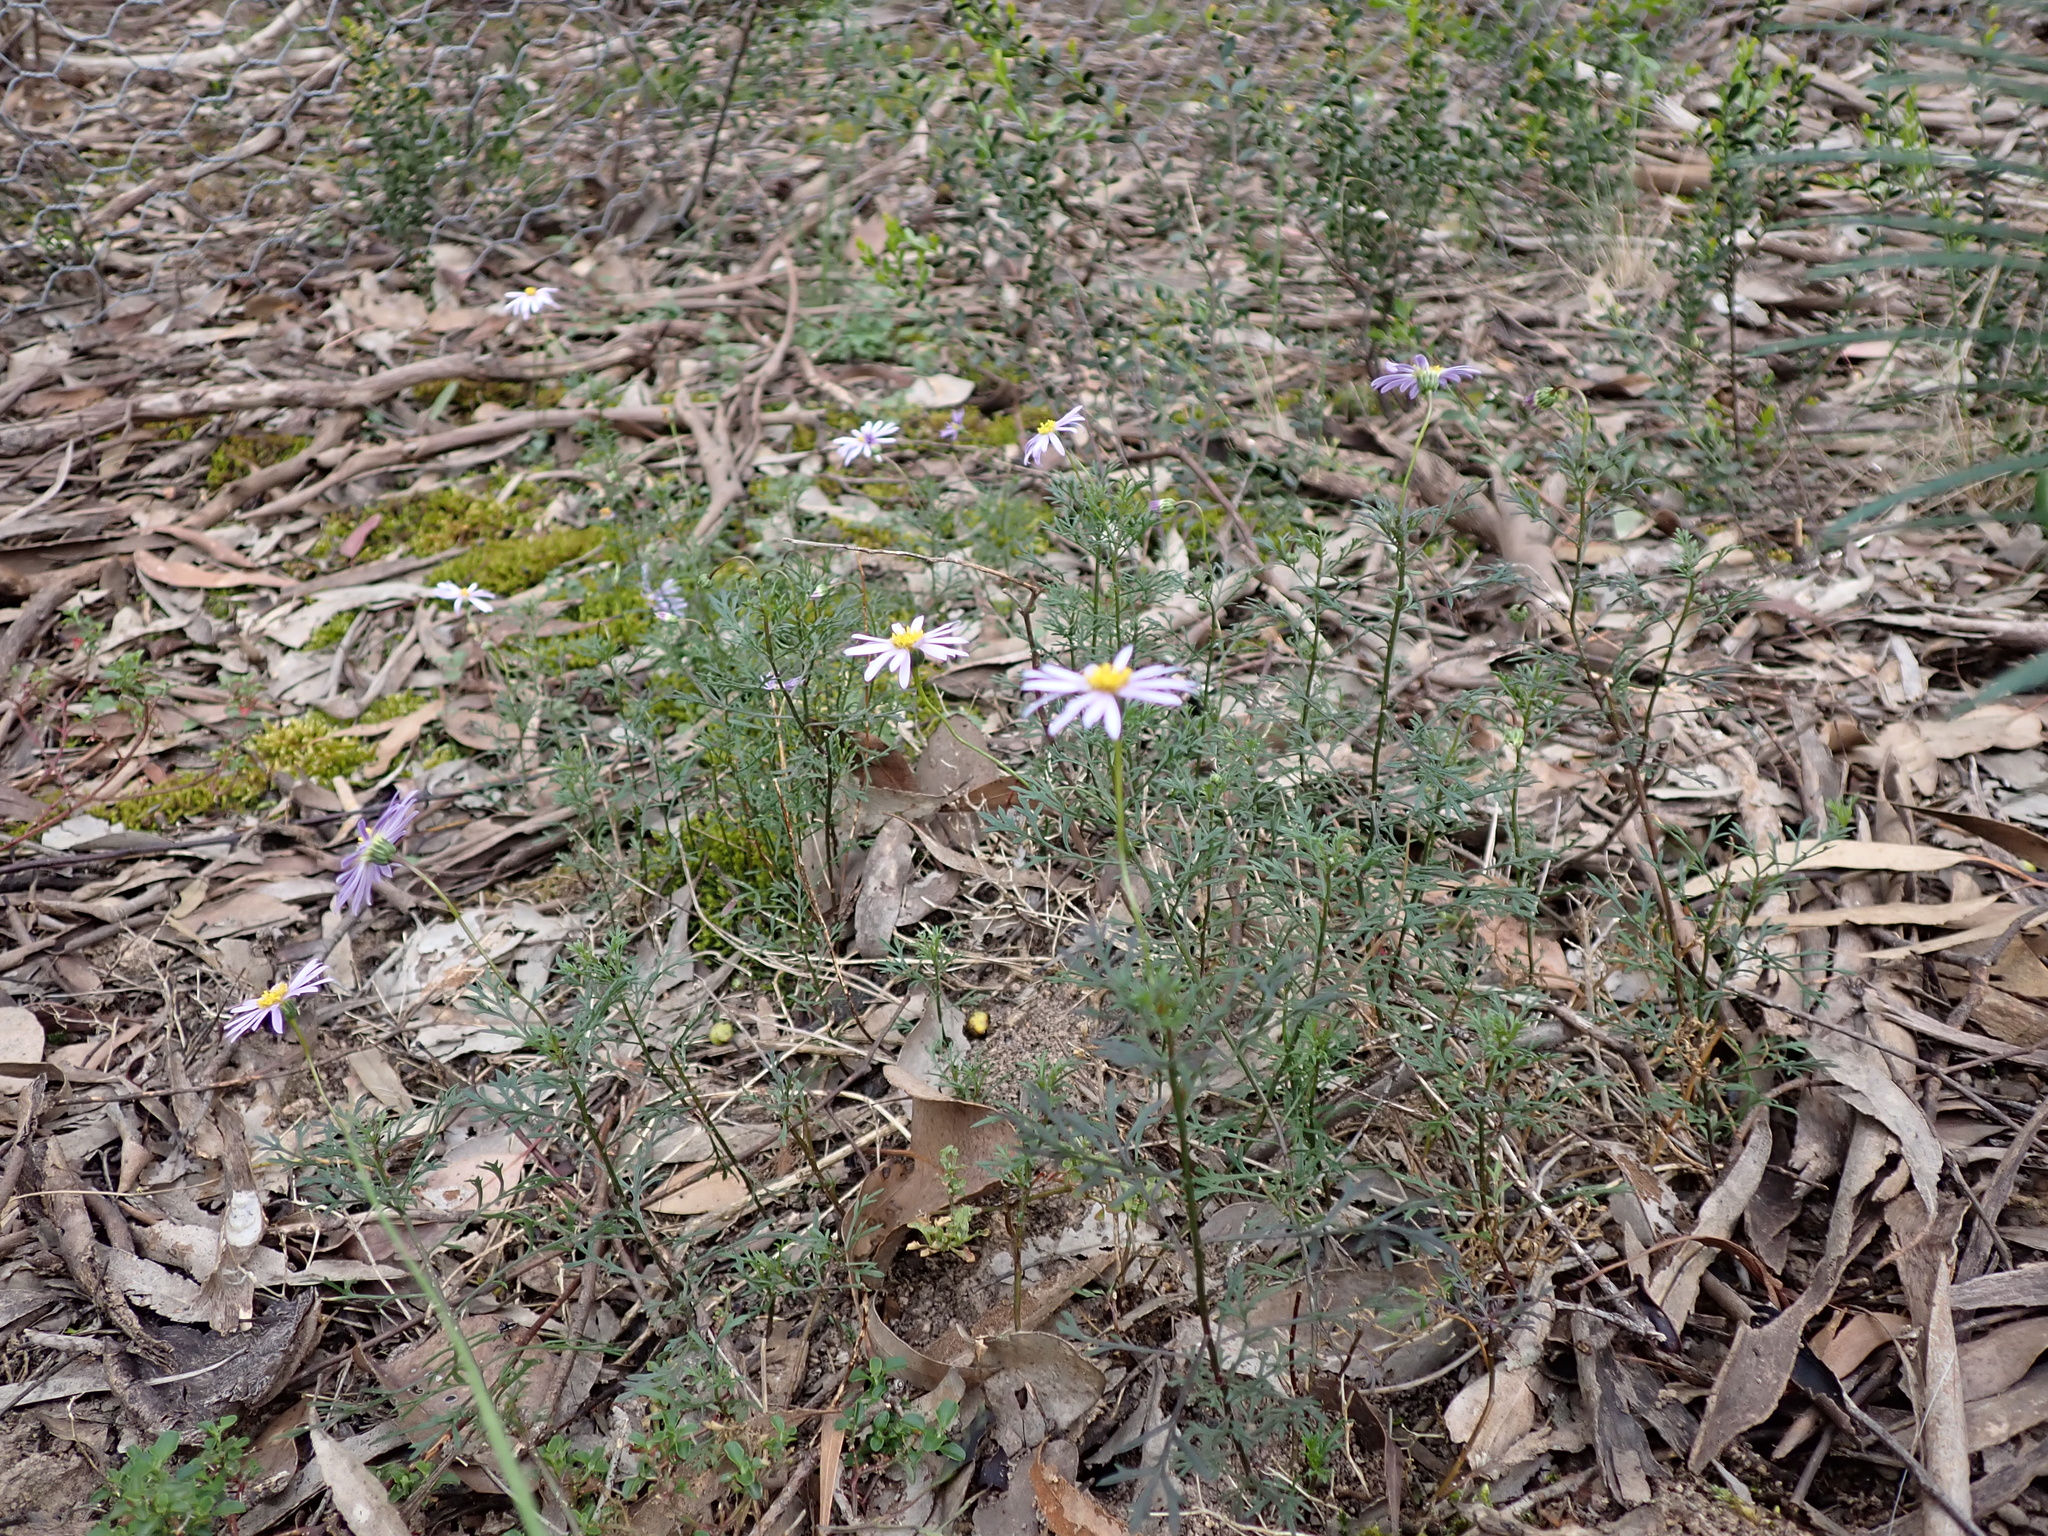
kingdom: Plantae
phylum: Tracheophyta
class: Magnoliopsida
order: Asterales
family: Asteraceae
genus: Brachyscome
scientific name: Brachyscome multifida
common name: Cut-leaf daisy
